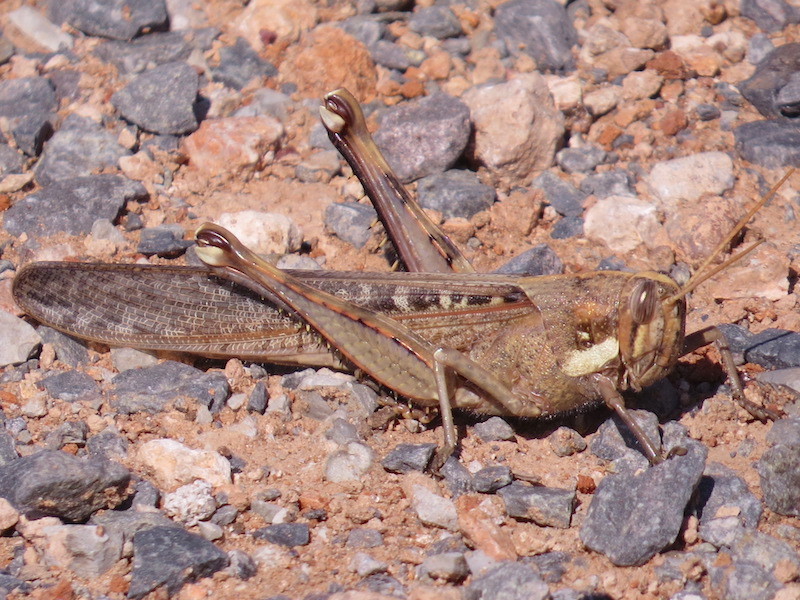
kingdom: Animalia
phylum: Arthropoda
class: Insecta
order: Orthoptera
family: Acrididae
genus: Schistocerca
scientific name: Schistocerca nitens
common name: Vagrant grasshopper
